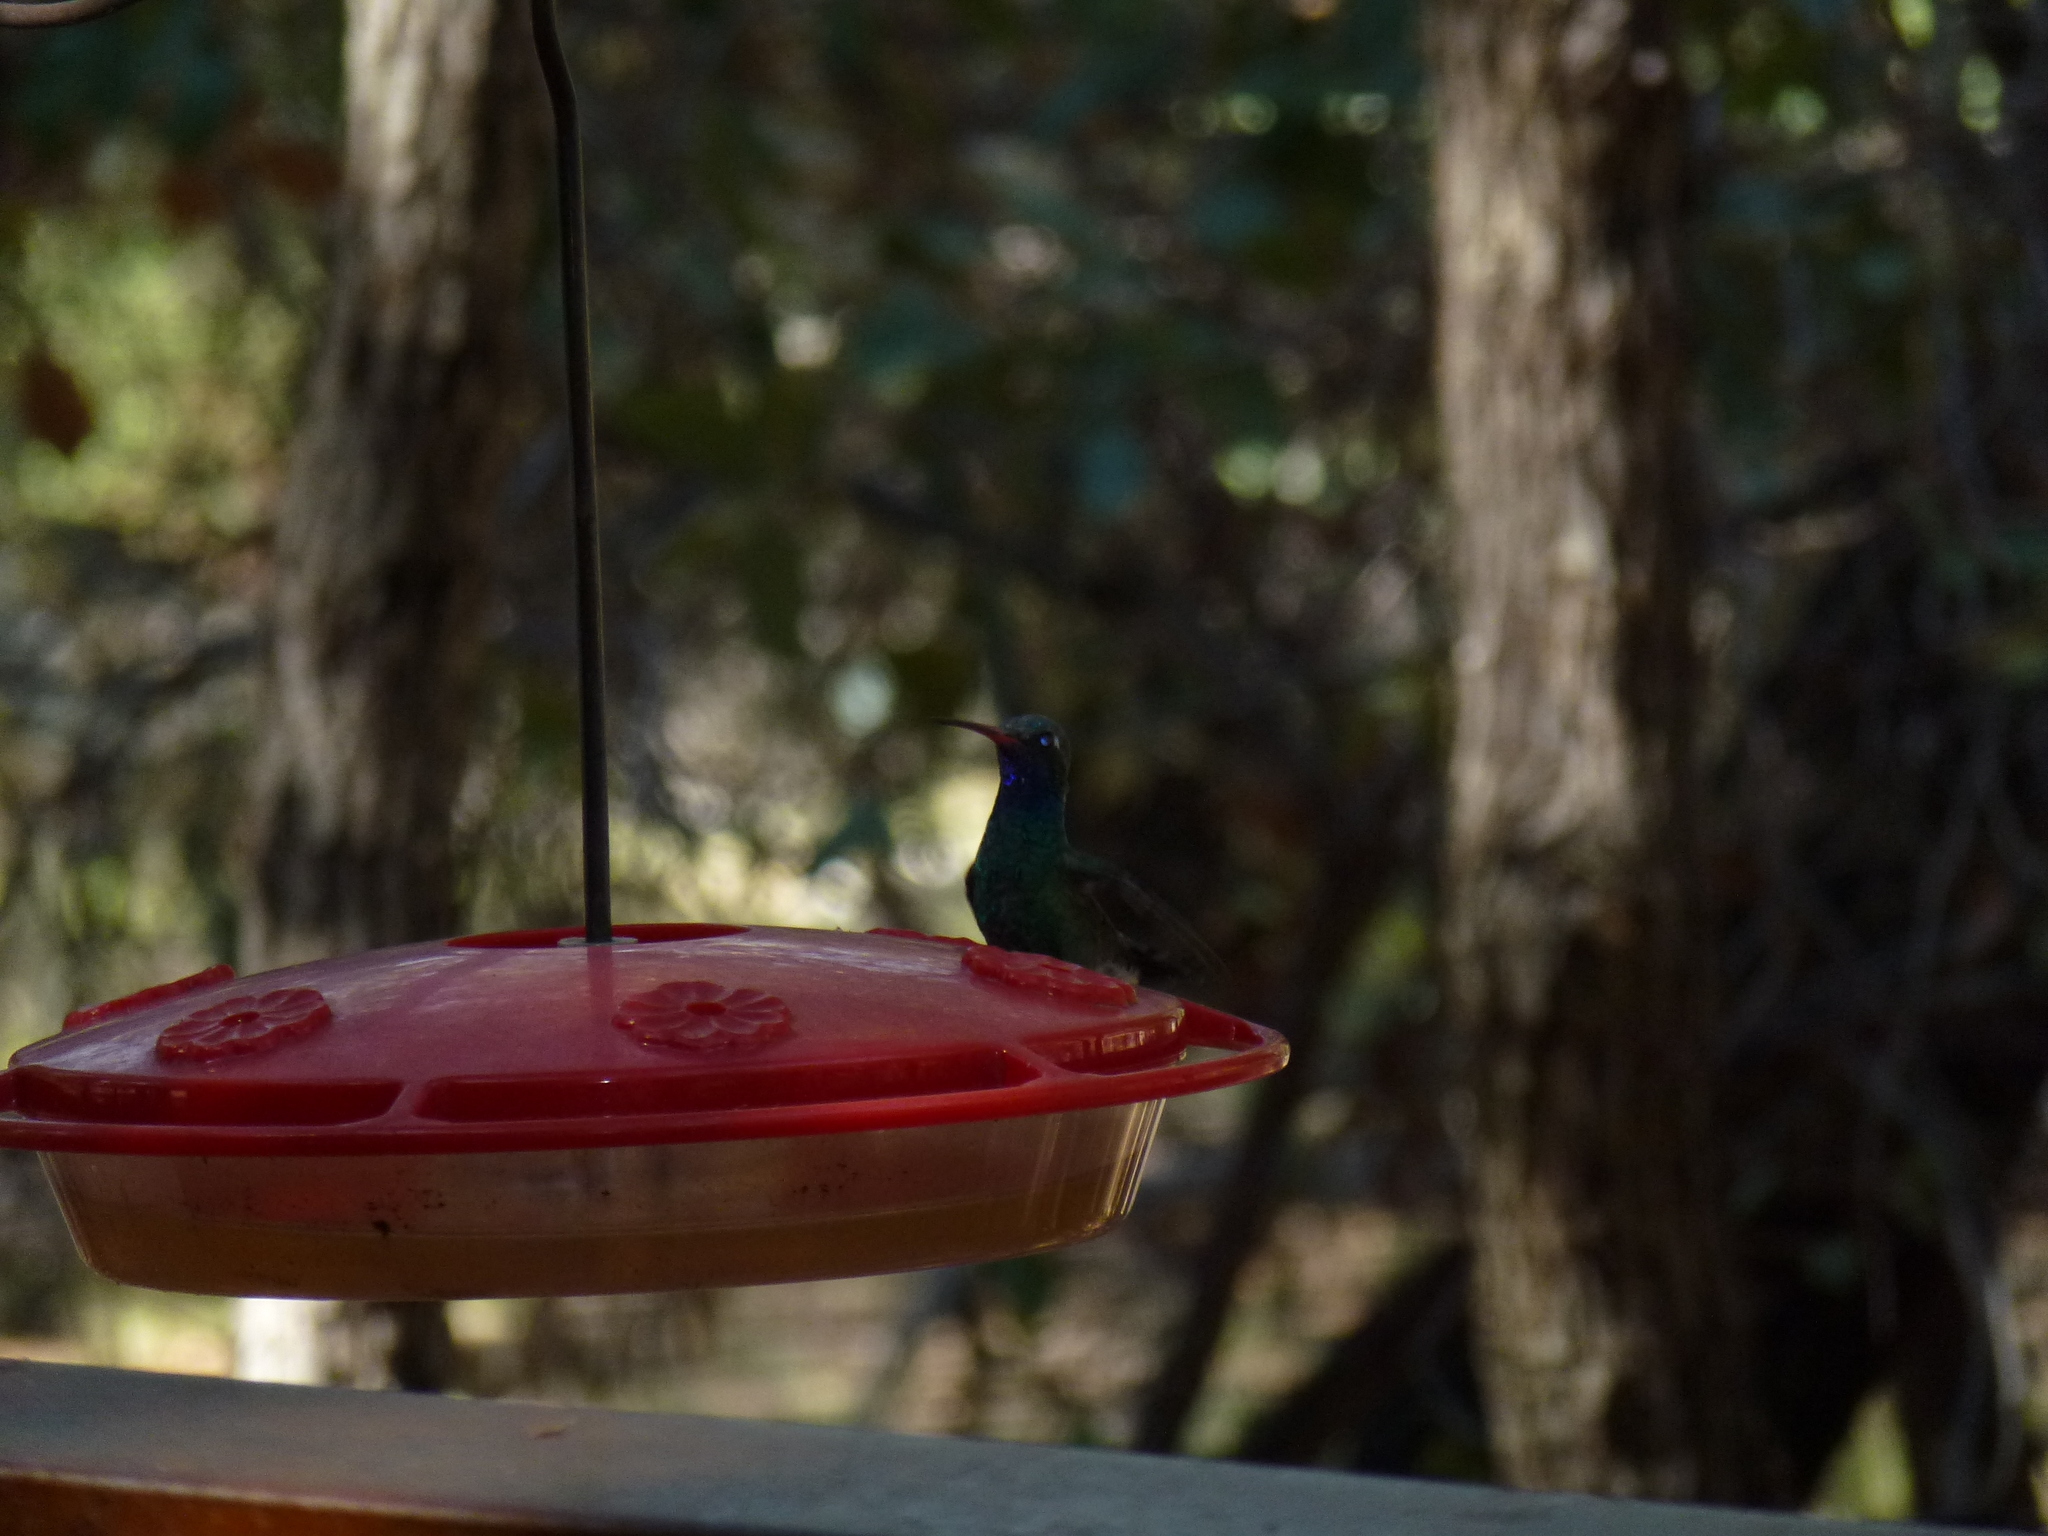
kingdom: Animalia
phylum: Chordata
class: Aves
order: Apodiformes
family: Trochilidae
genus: Cynanthus
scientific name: Cynanthus latirostris
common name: Broad-billed hummingbird
